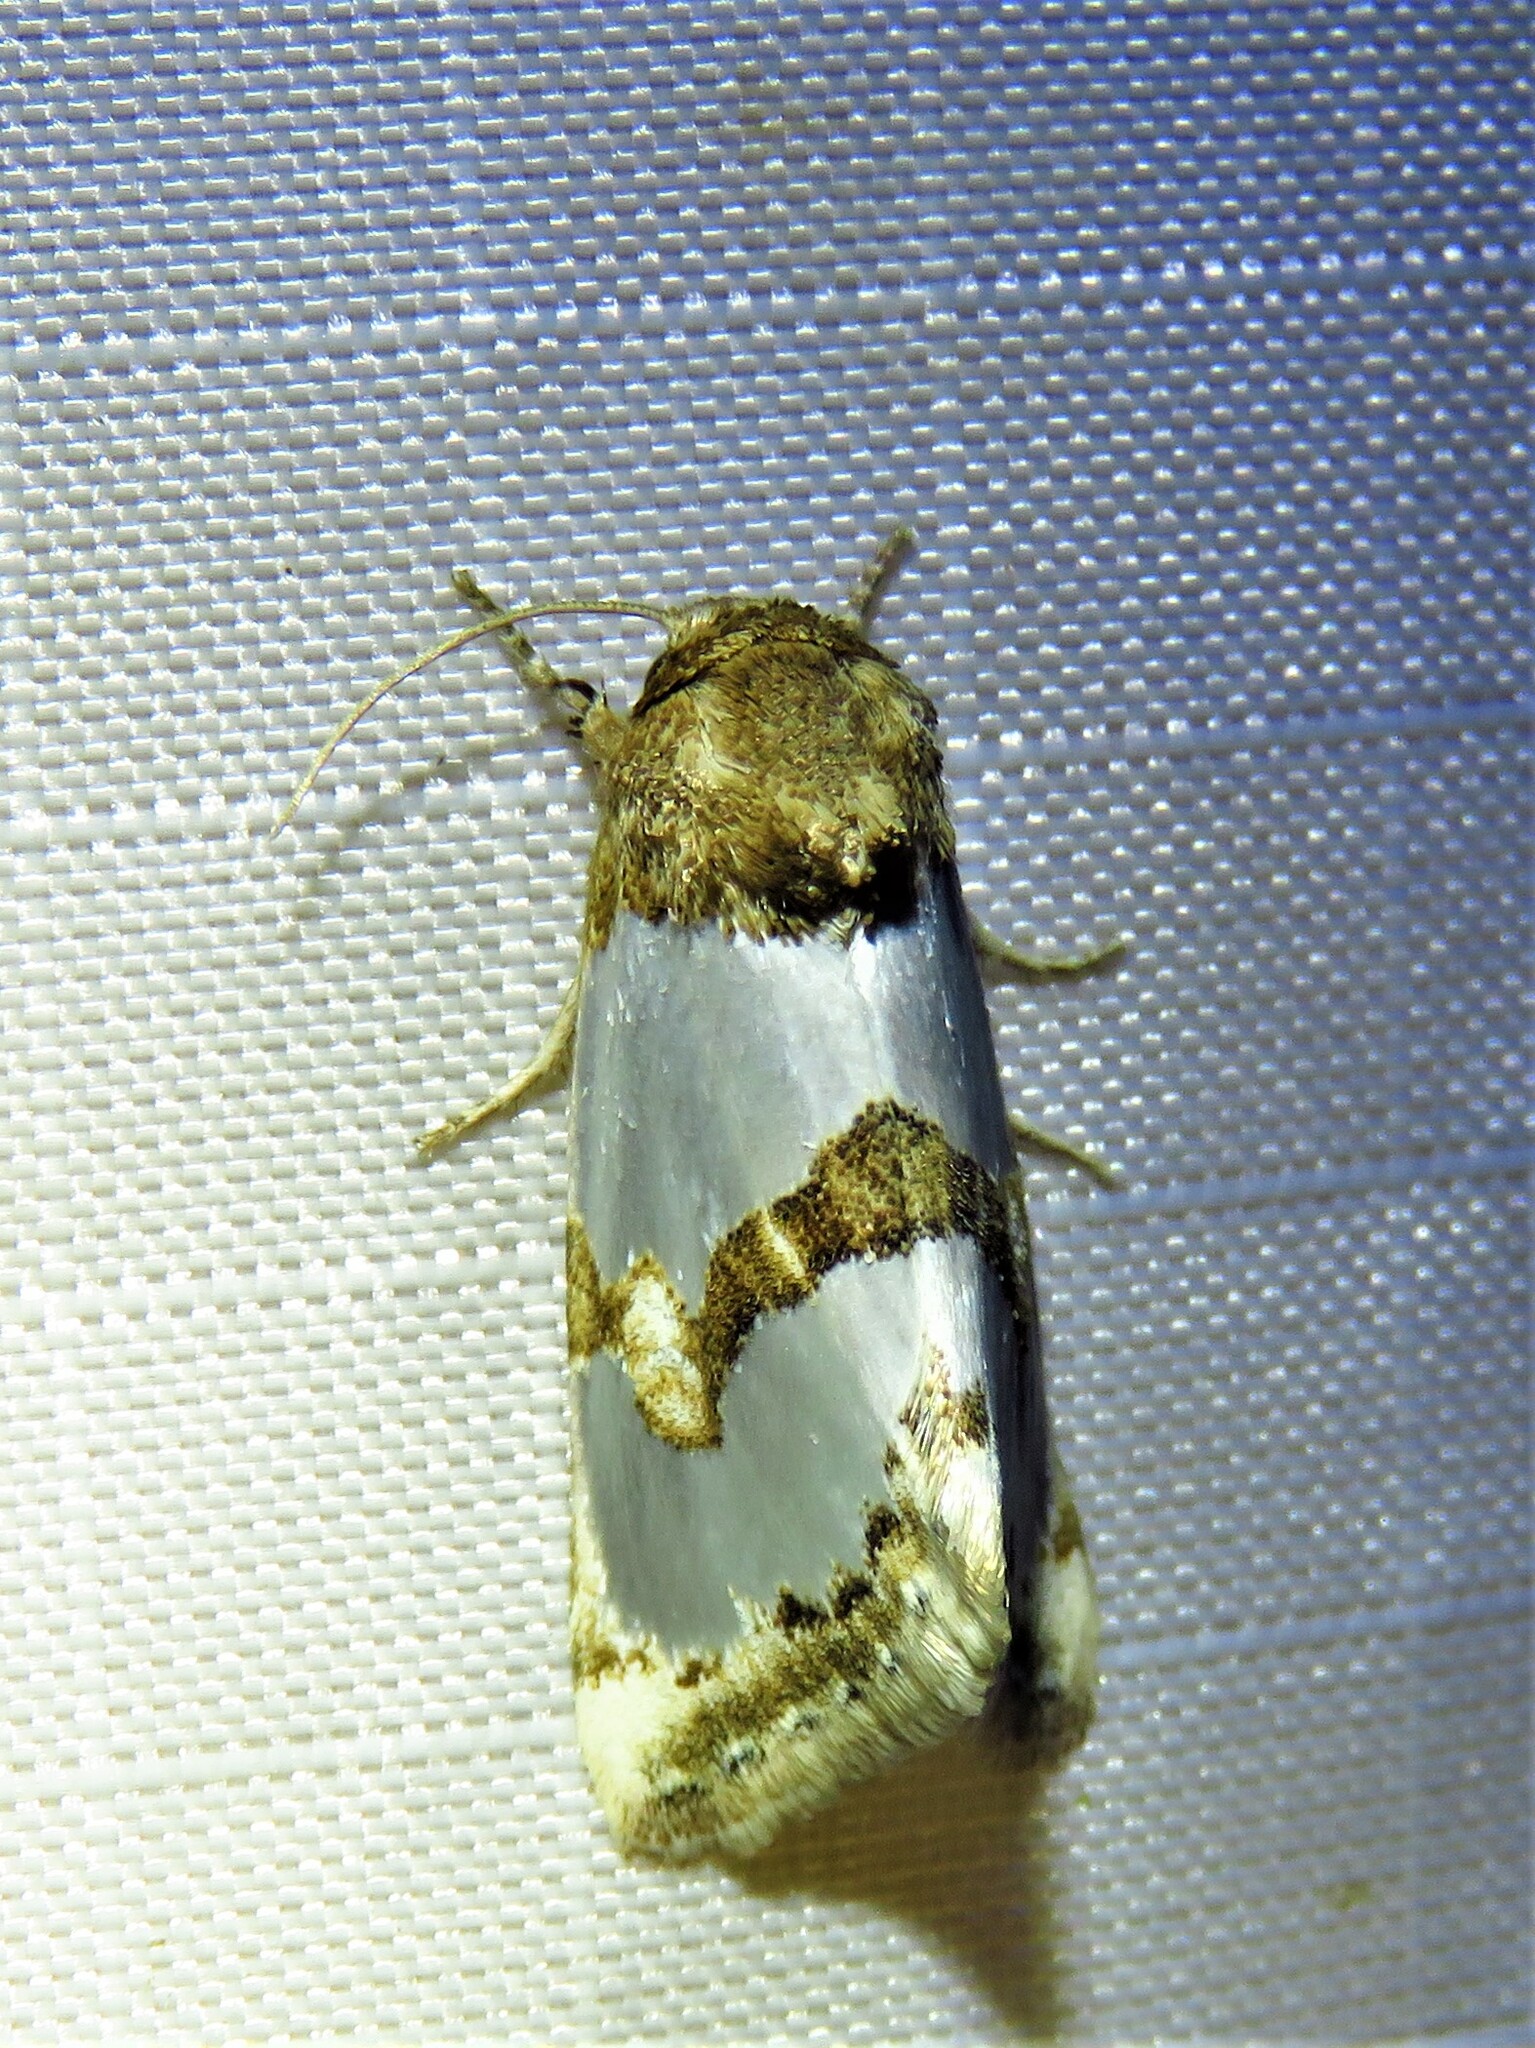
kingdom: Animalia
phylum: Arthropoda
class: Insecta
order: Lepidoptera
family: Noctuidae
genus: Schinia
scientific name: Schinia chrysellus
